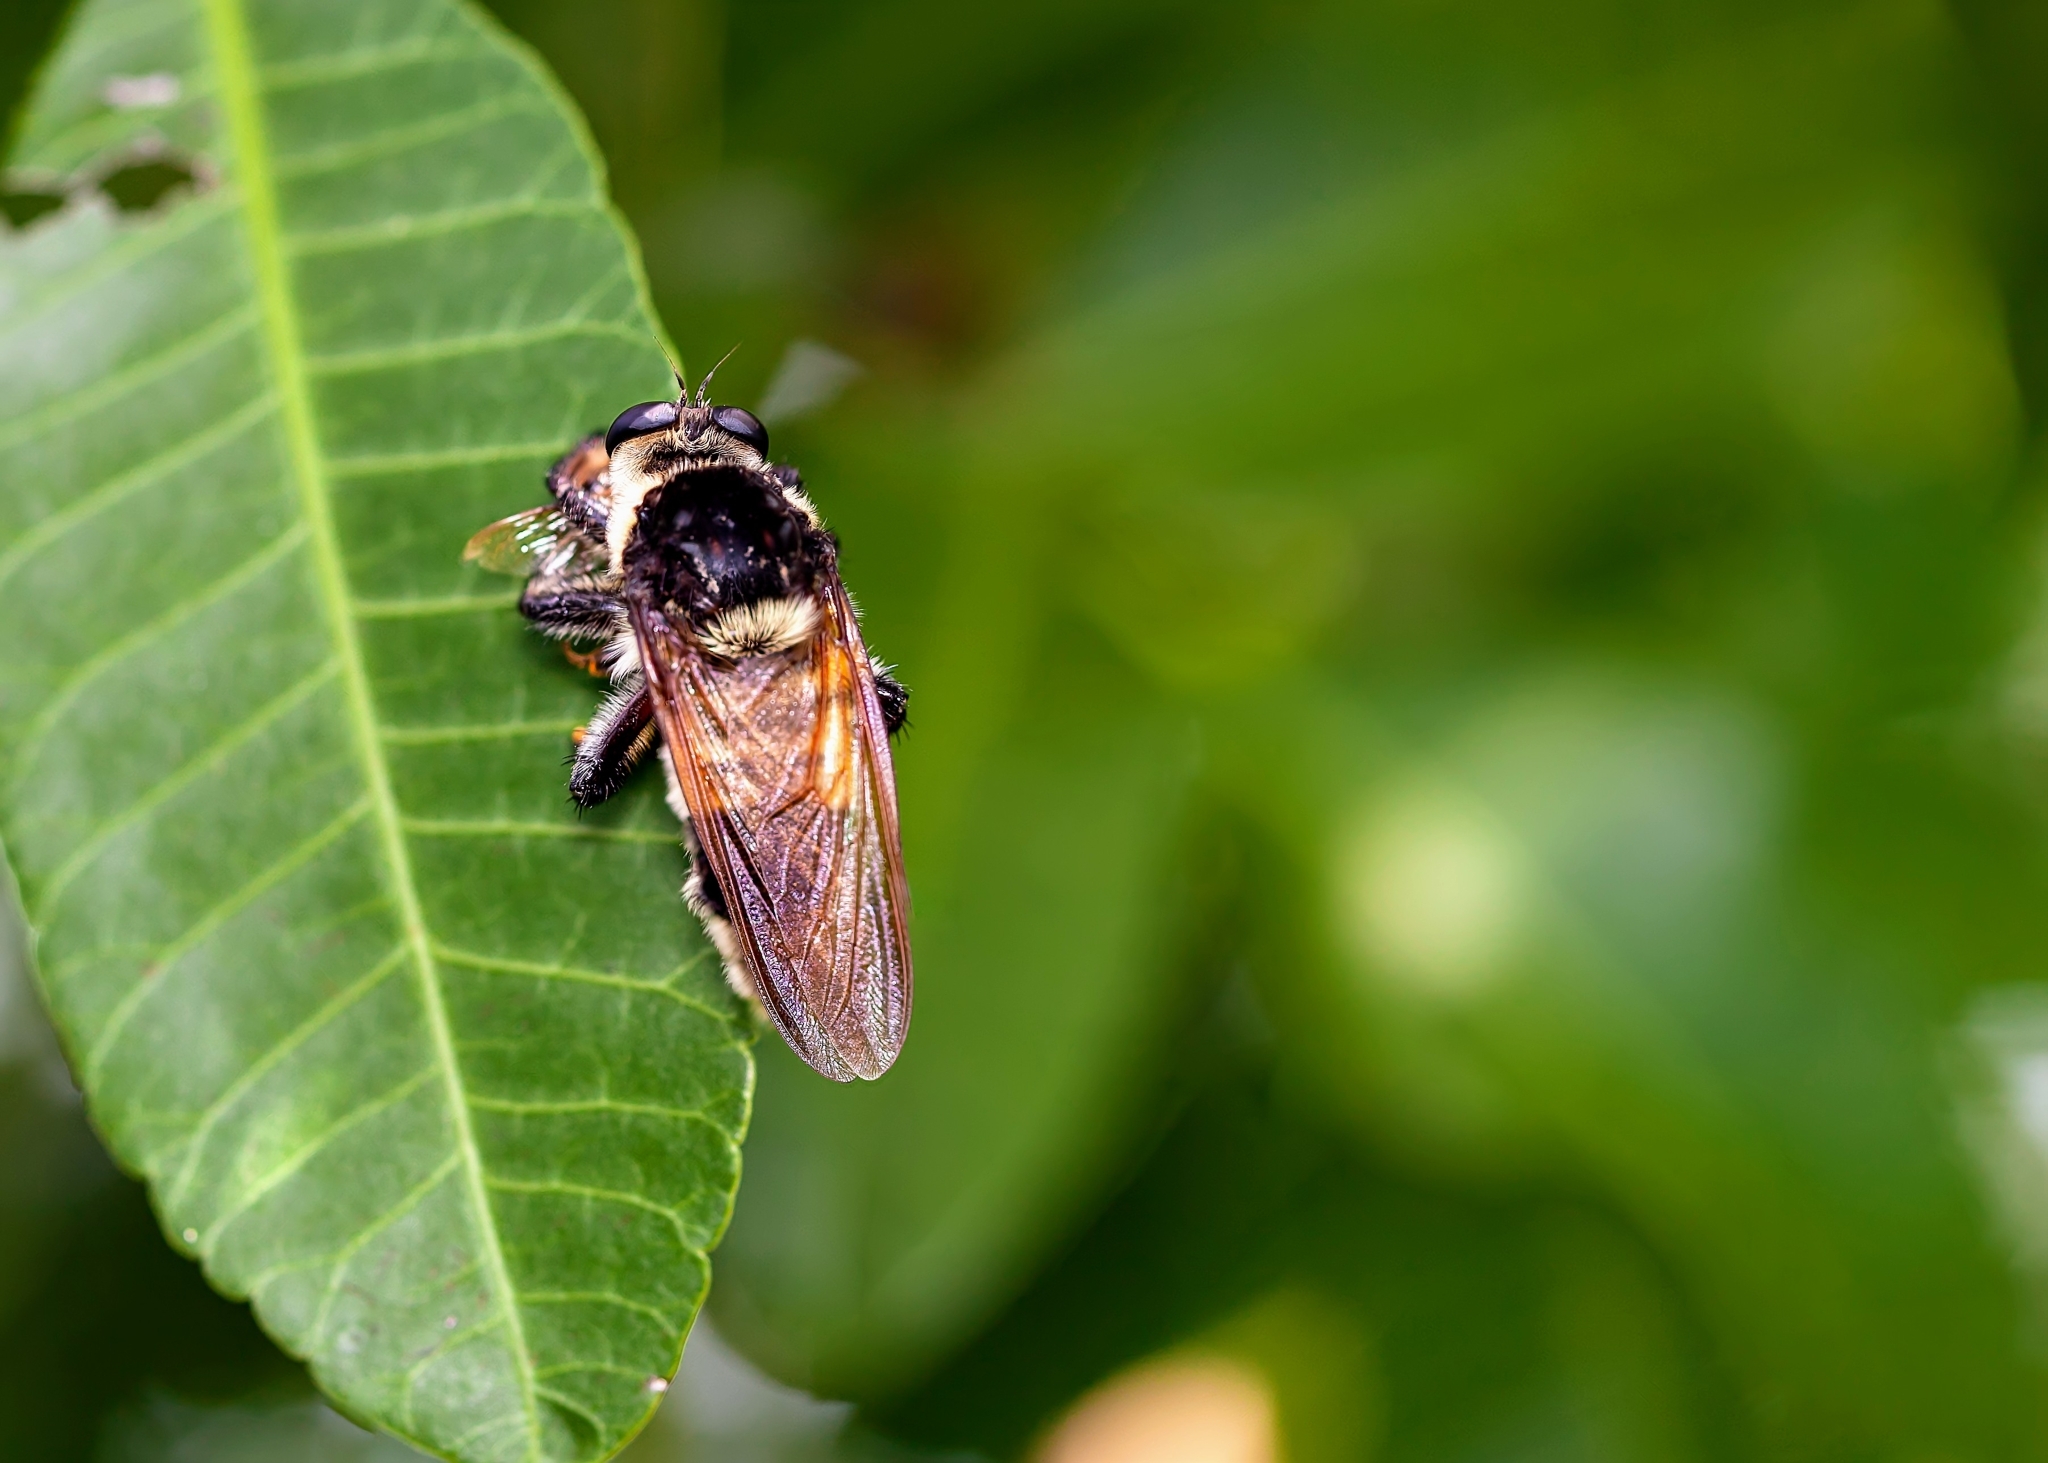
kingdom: Animalia
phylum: Arthropoda
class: Insecta
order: Diptera
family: Asilidae
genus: Mallophora
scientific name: Mallophora bomboides
